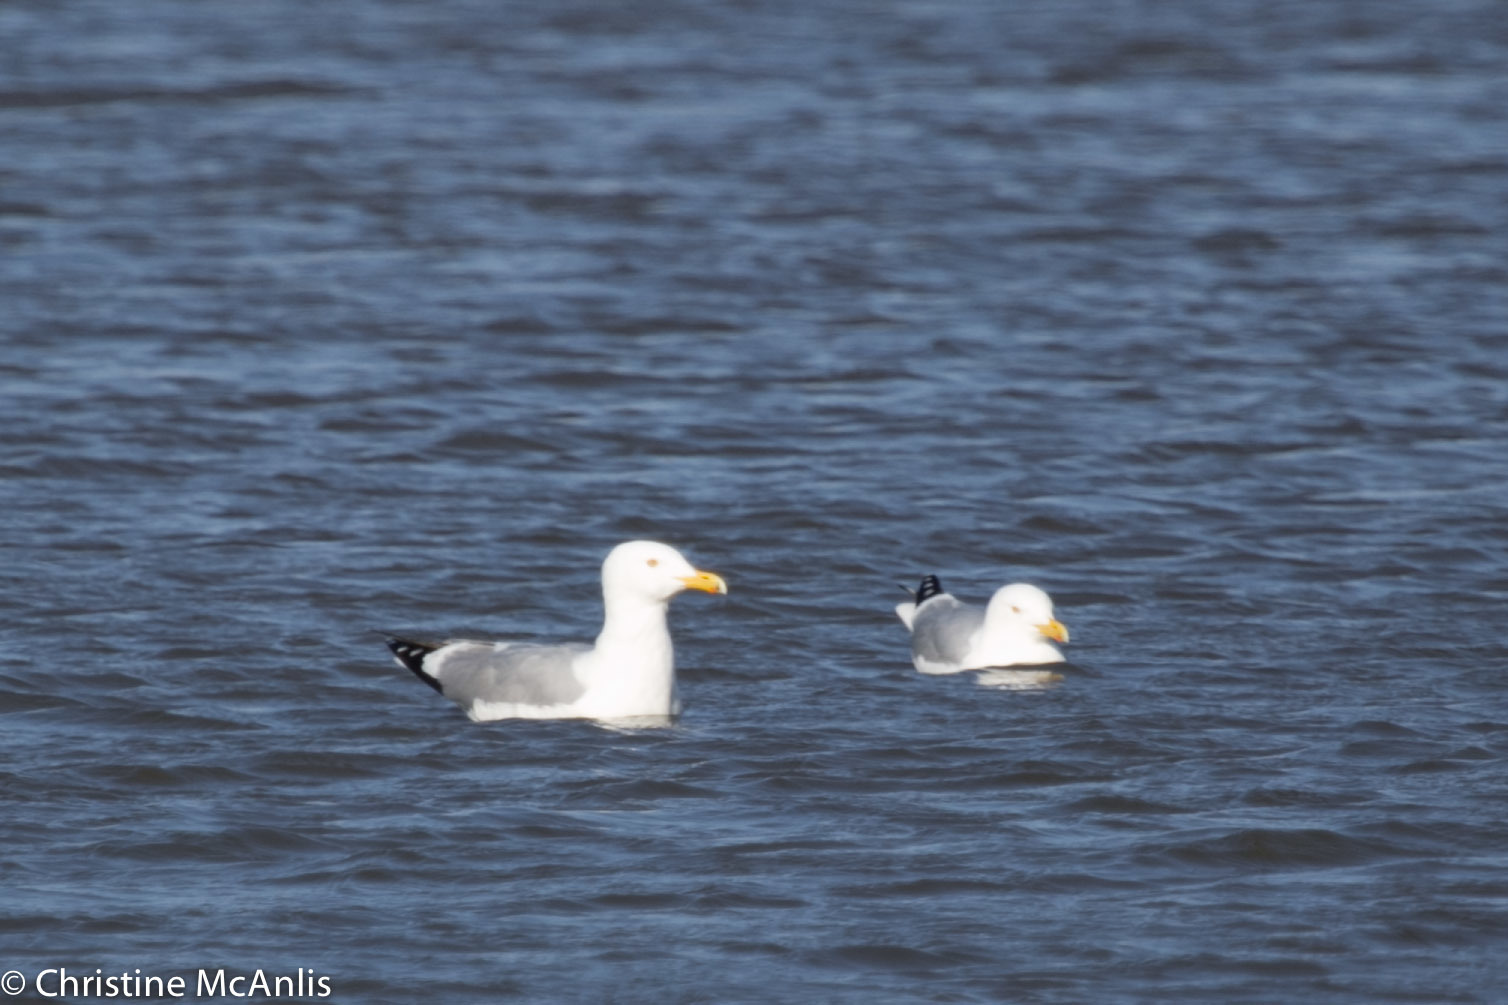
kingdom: Animalia
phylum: Chordata
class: Aves
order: Charadriiformes
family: Laridae
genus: Larus
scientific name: Larus argentatus
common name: Herring gull
